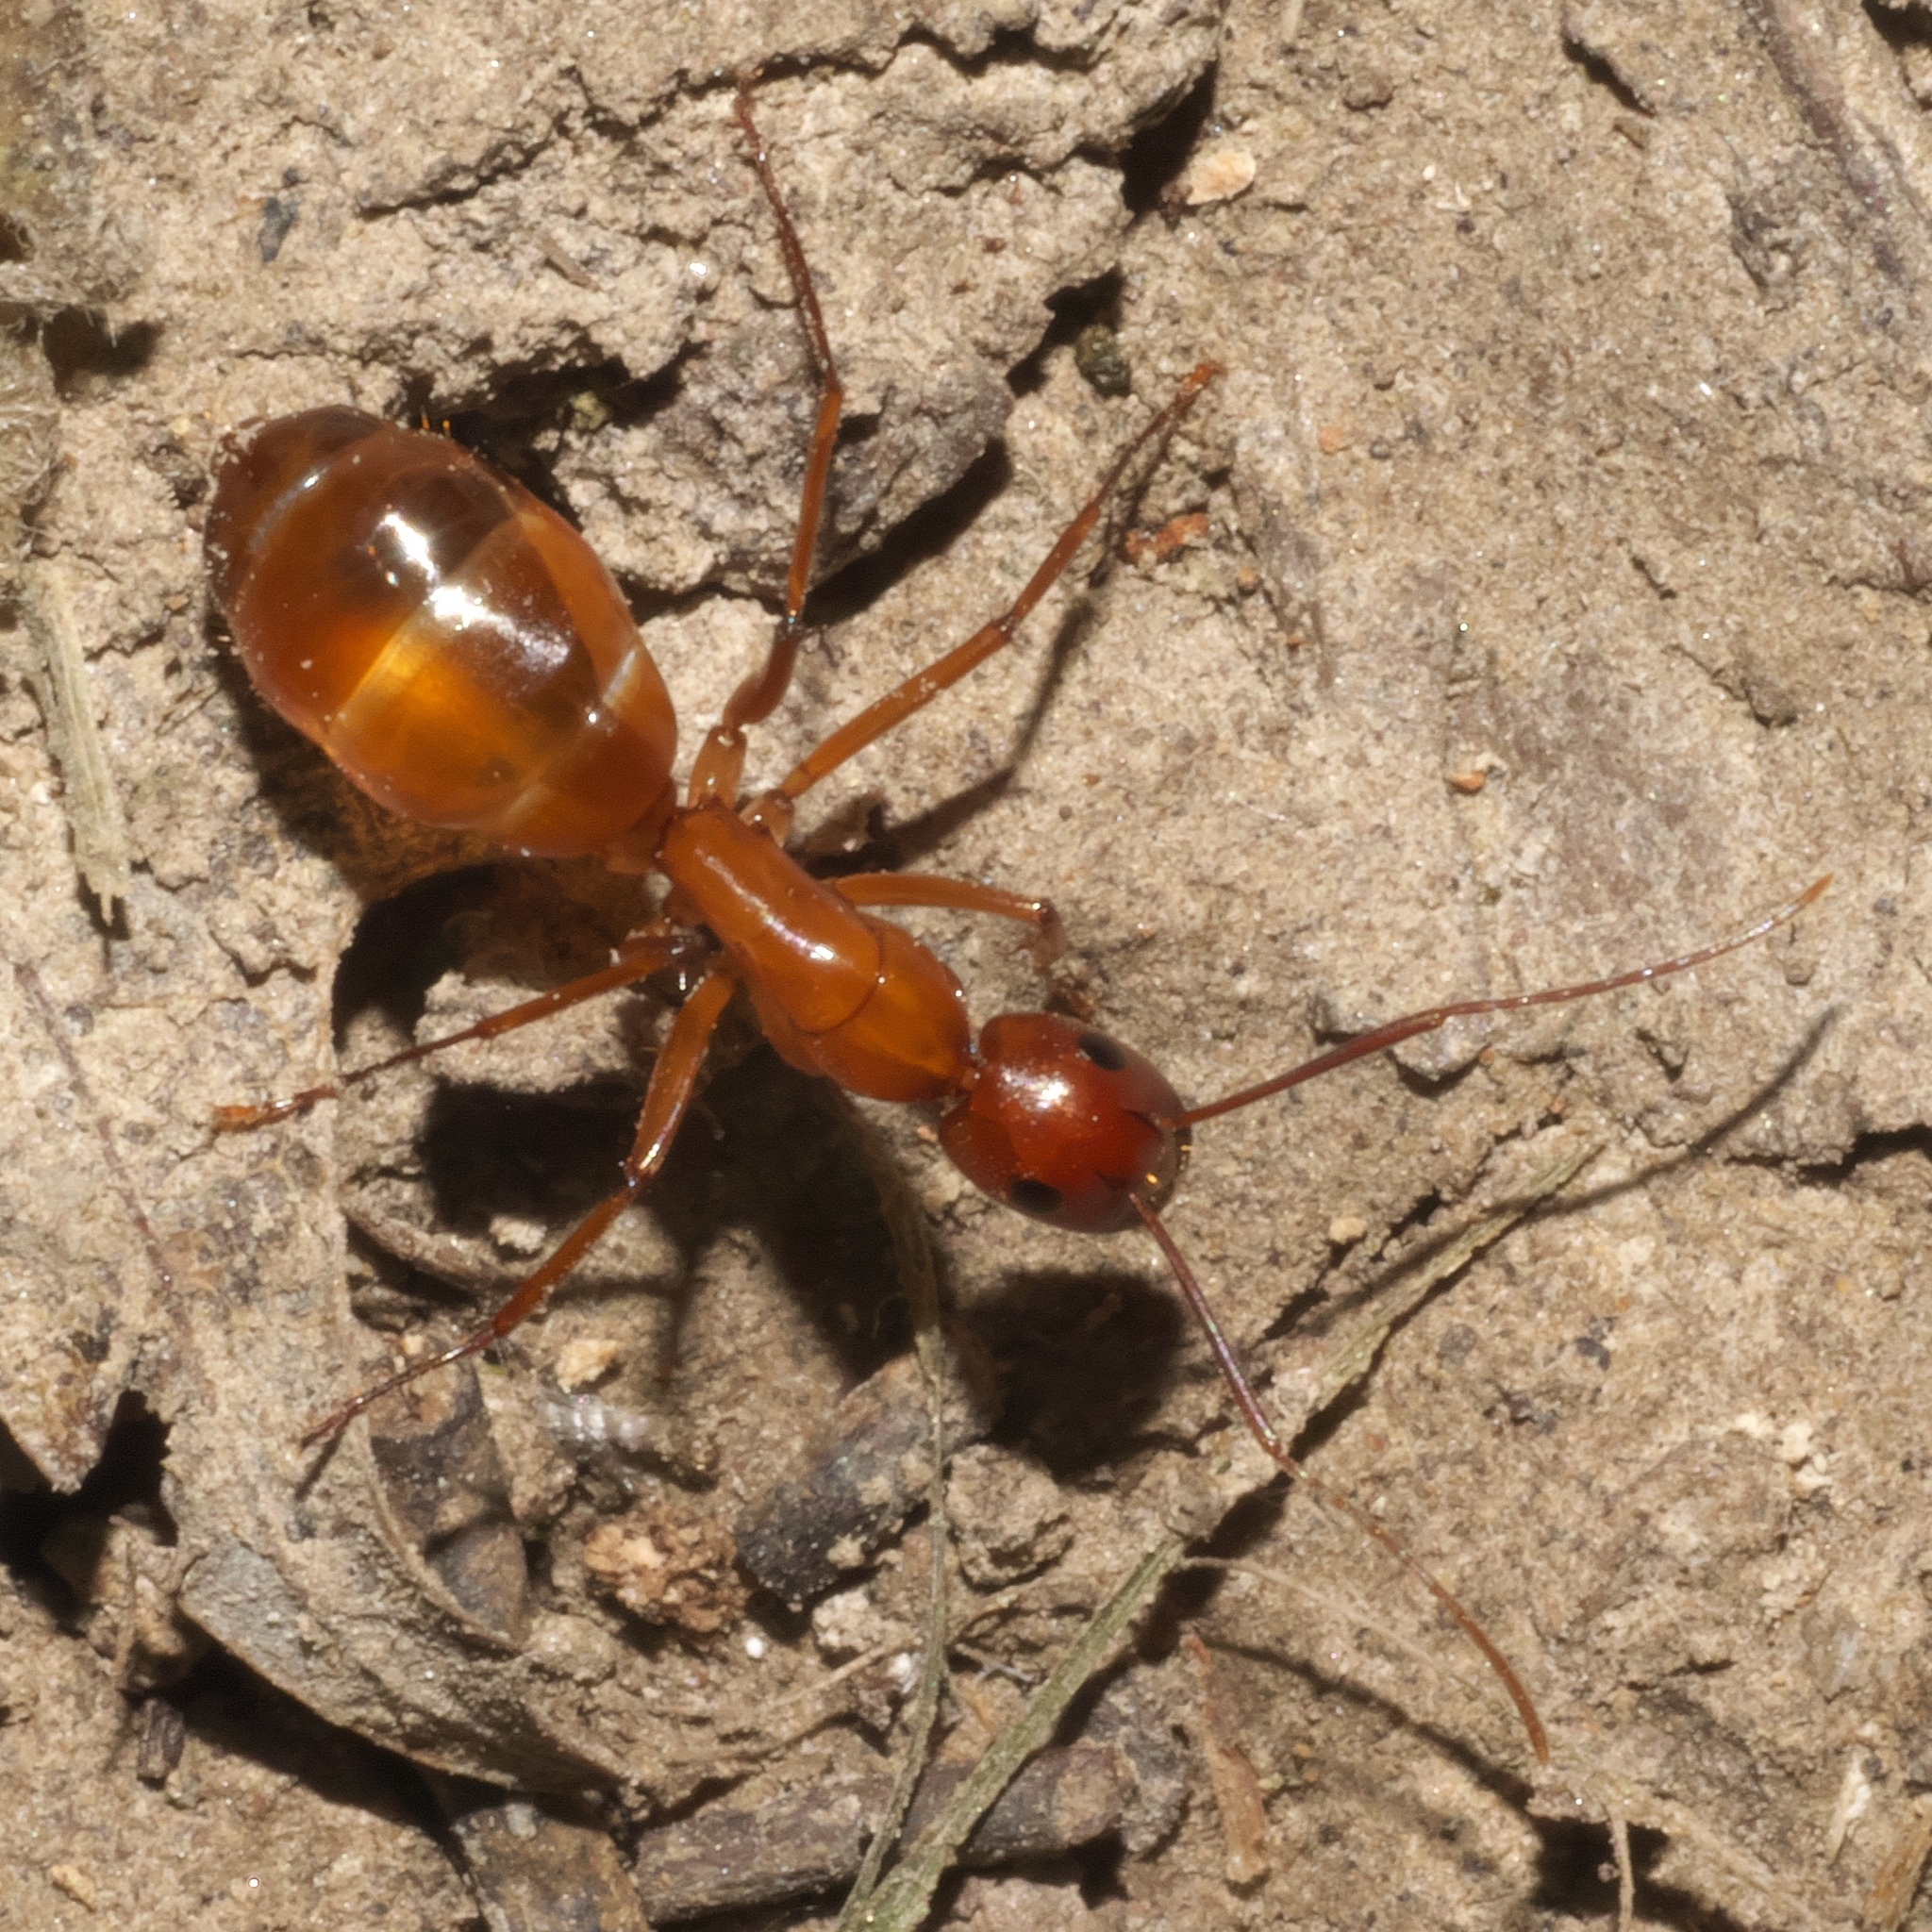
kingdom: Animalia
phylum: Arthropoda
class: Insecta
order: Hymenoptera
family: Formicidae
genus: Camponotus
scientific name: Camponotus castaneus
